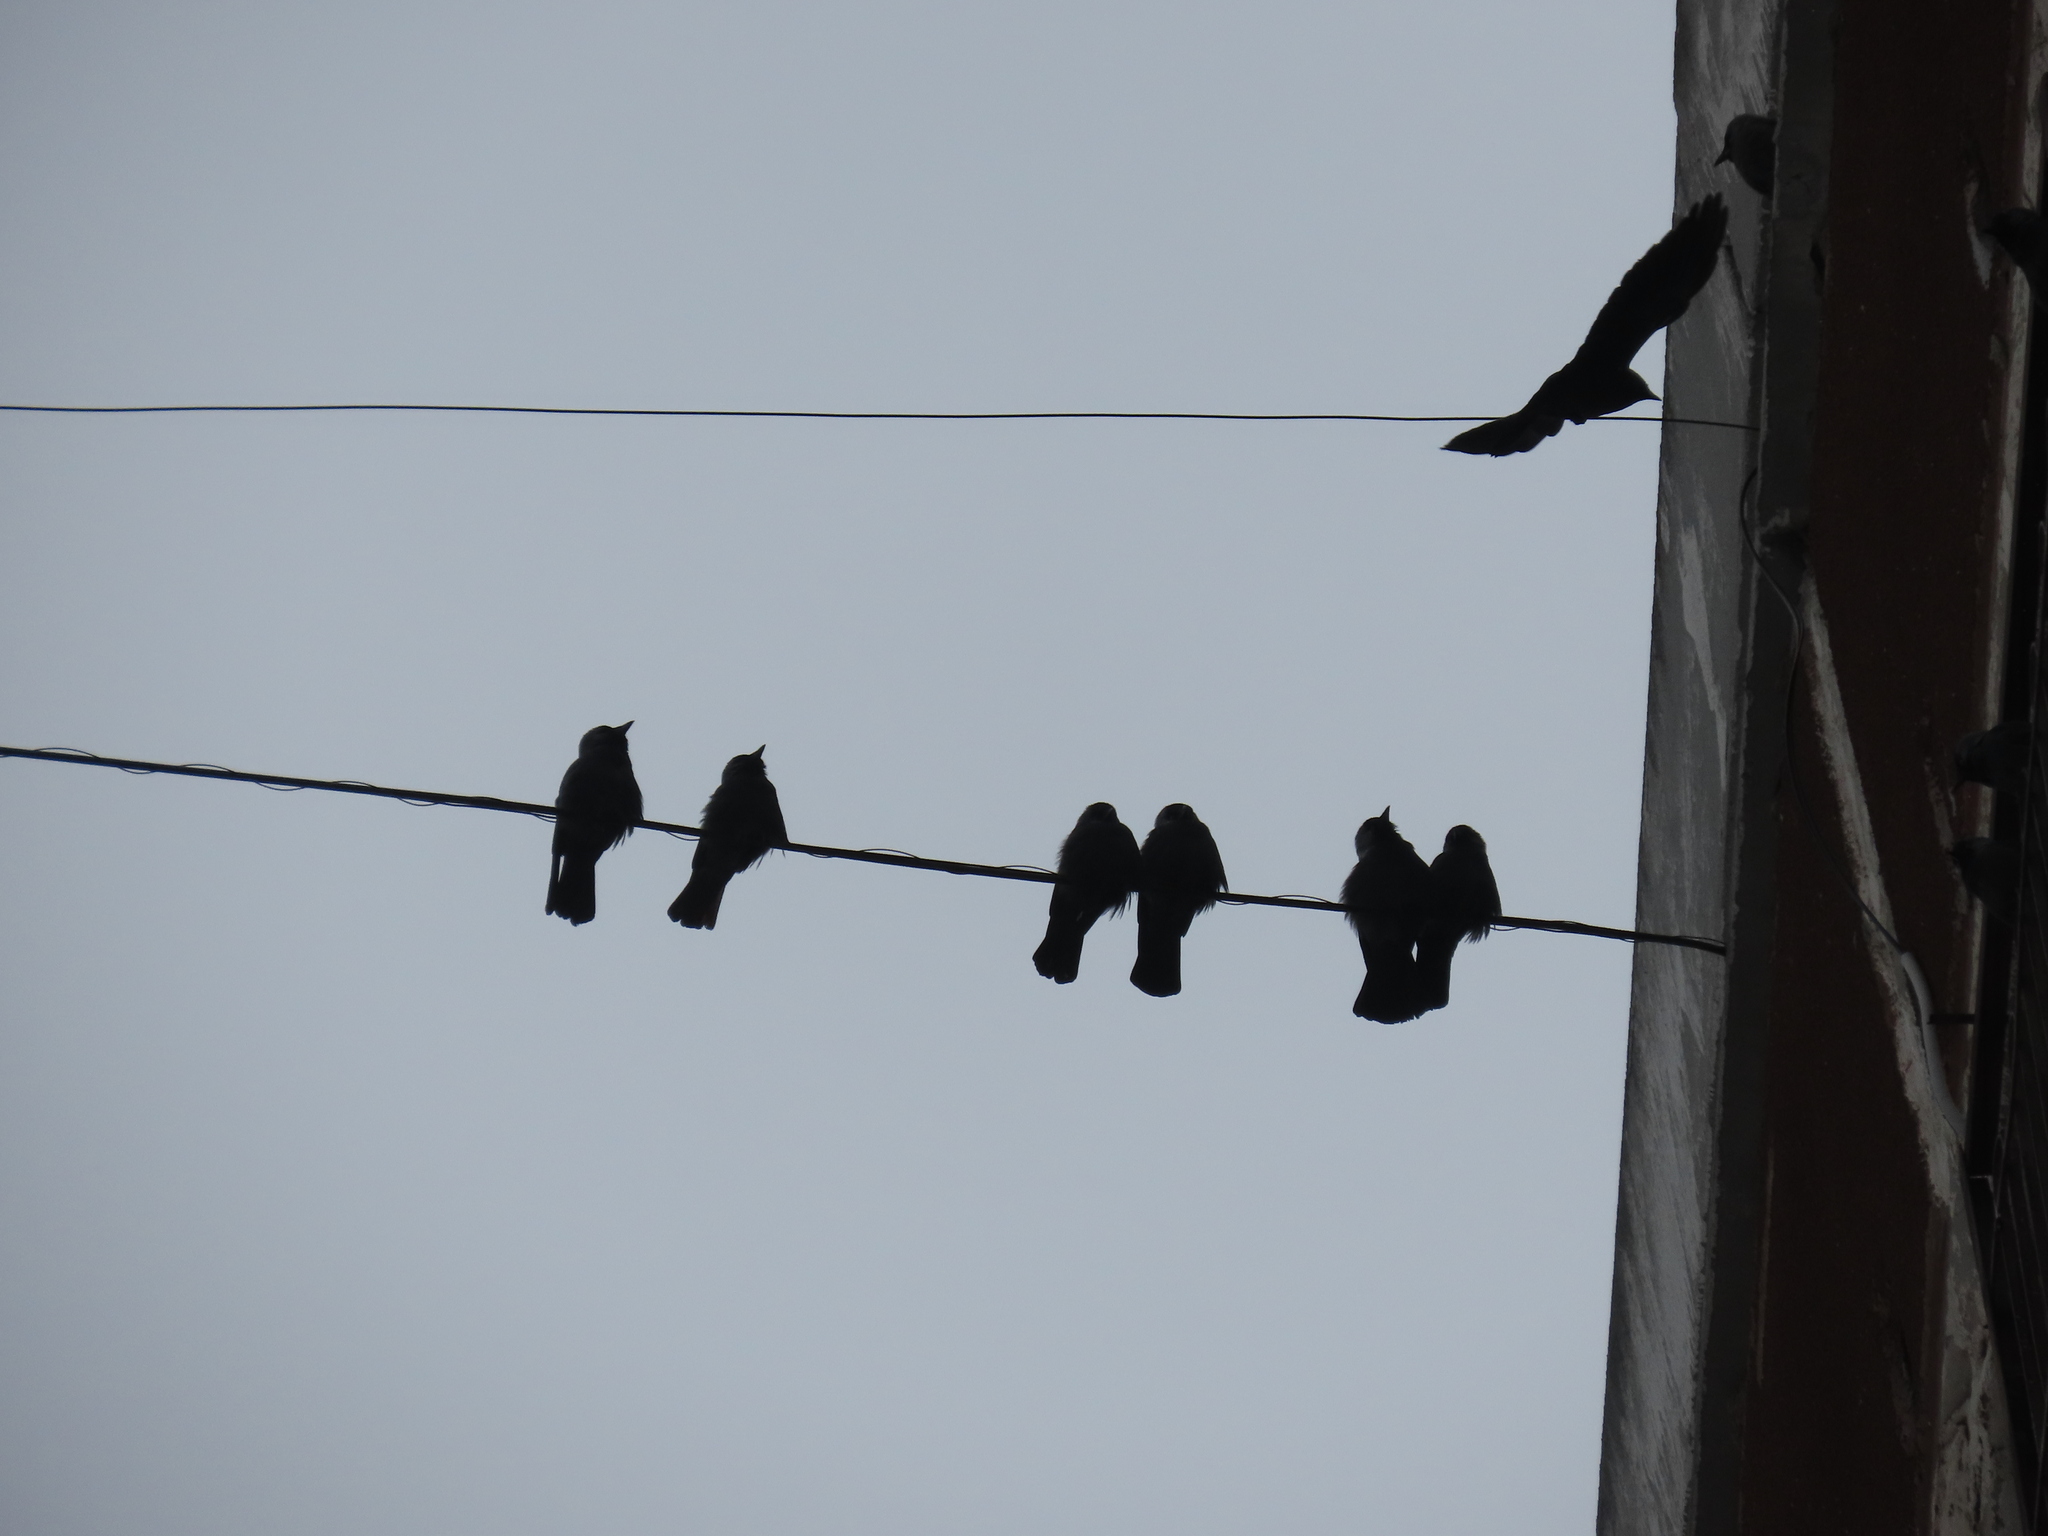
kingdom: Animalia
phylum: Chordata
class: Aves
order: Passeriformes
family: Corvidae
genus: Coloeus
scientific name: Coloeus monedula
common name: Western jackdaw
